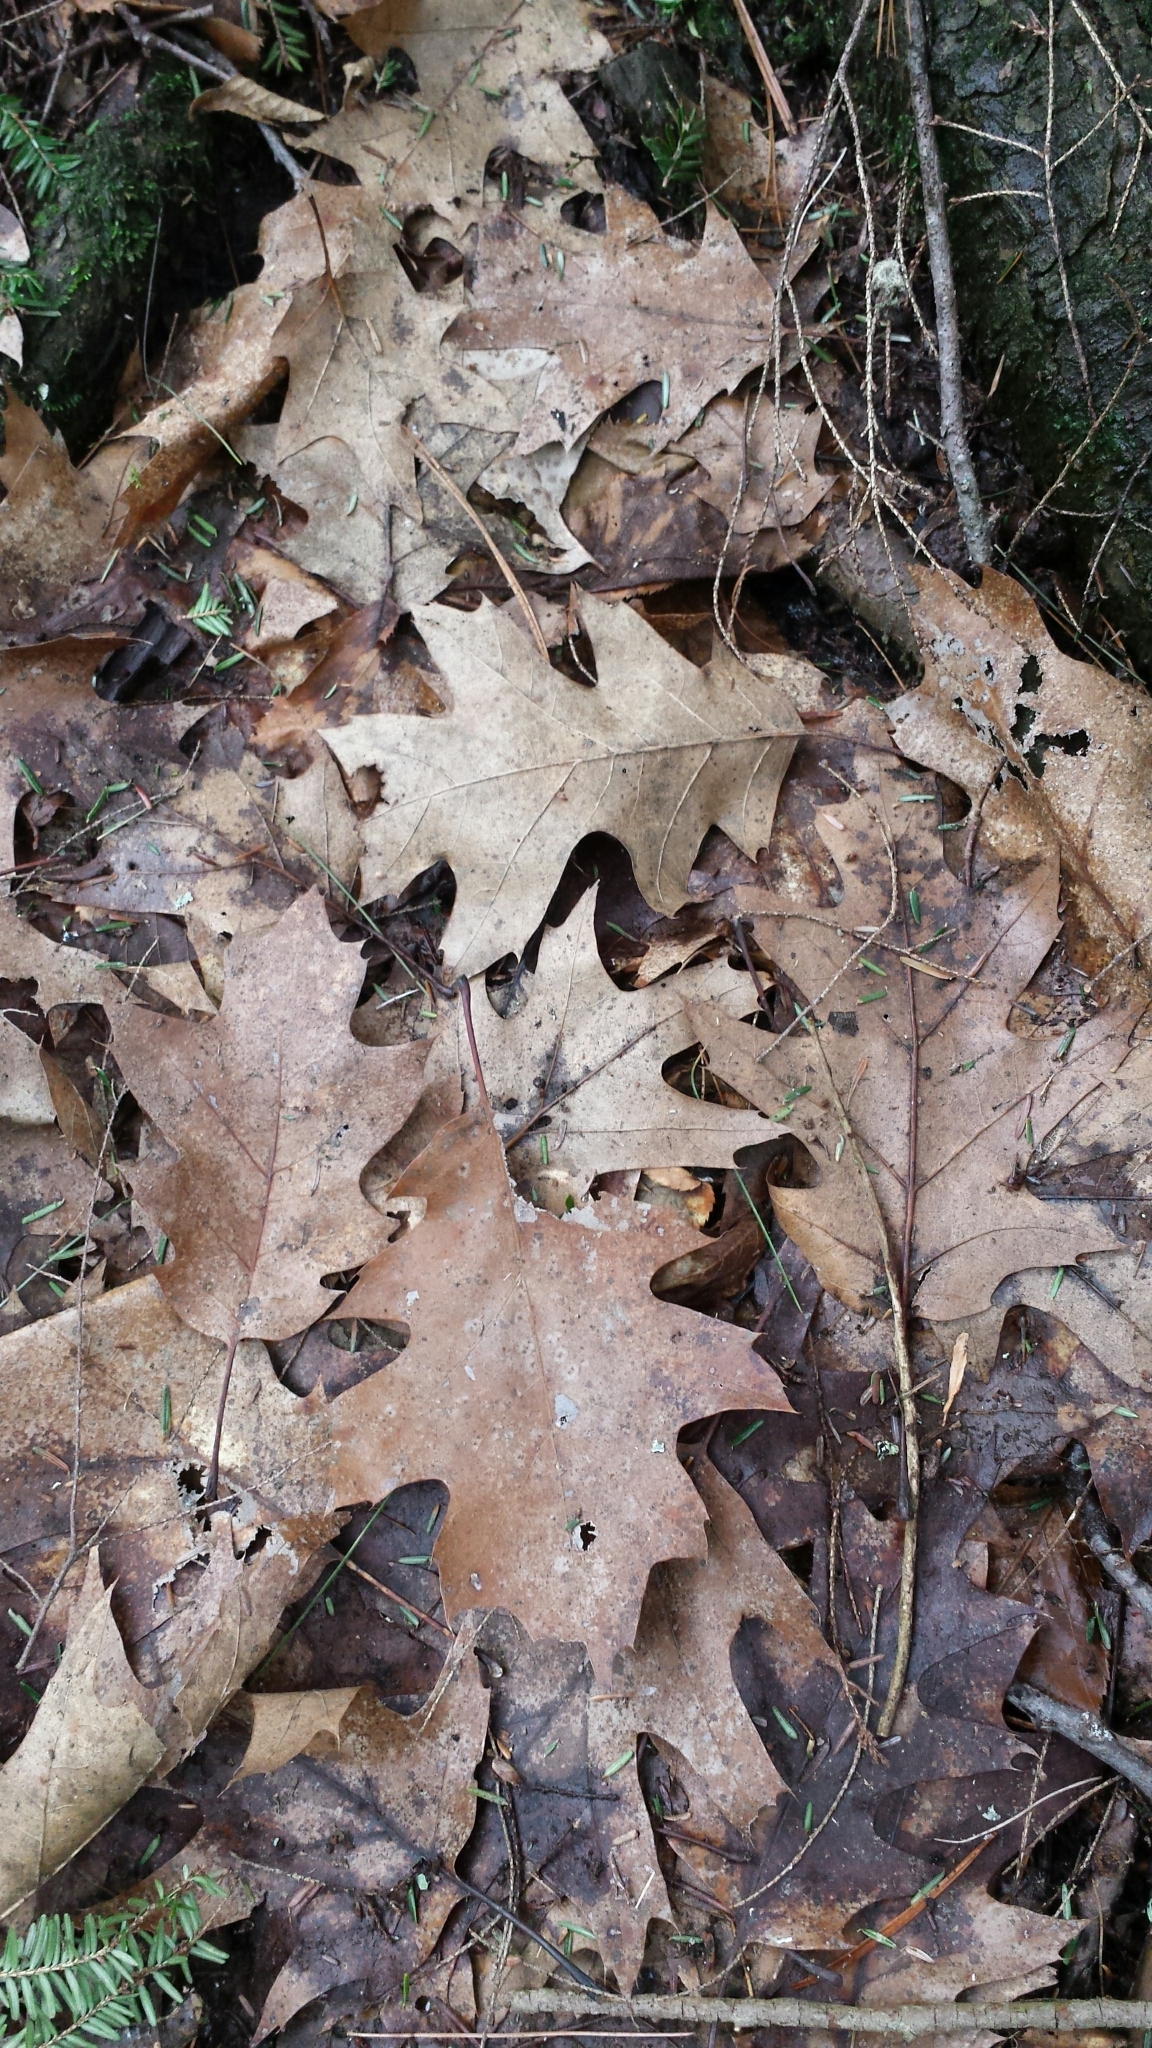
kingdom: Plantae
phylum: Tracheophyta
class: Magnoliopsida
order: Fagales
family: Fagaceae
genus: Quercus
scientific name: Quercus rubra
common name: Red oak
